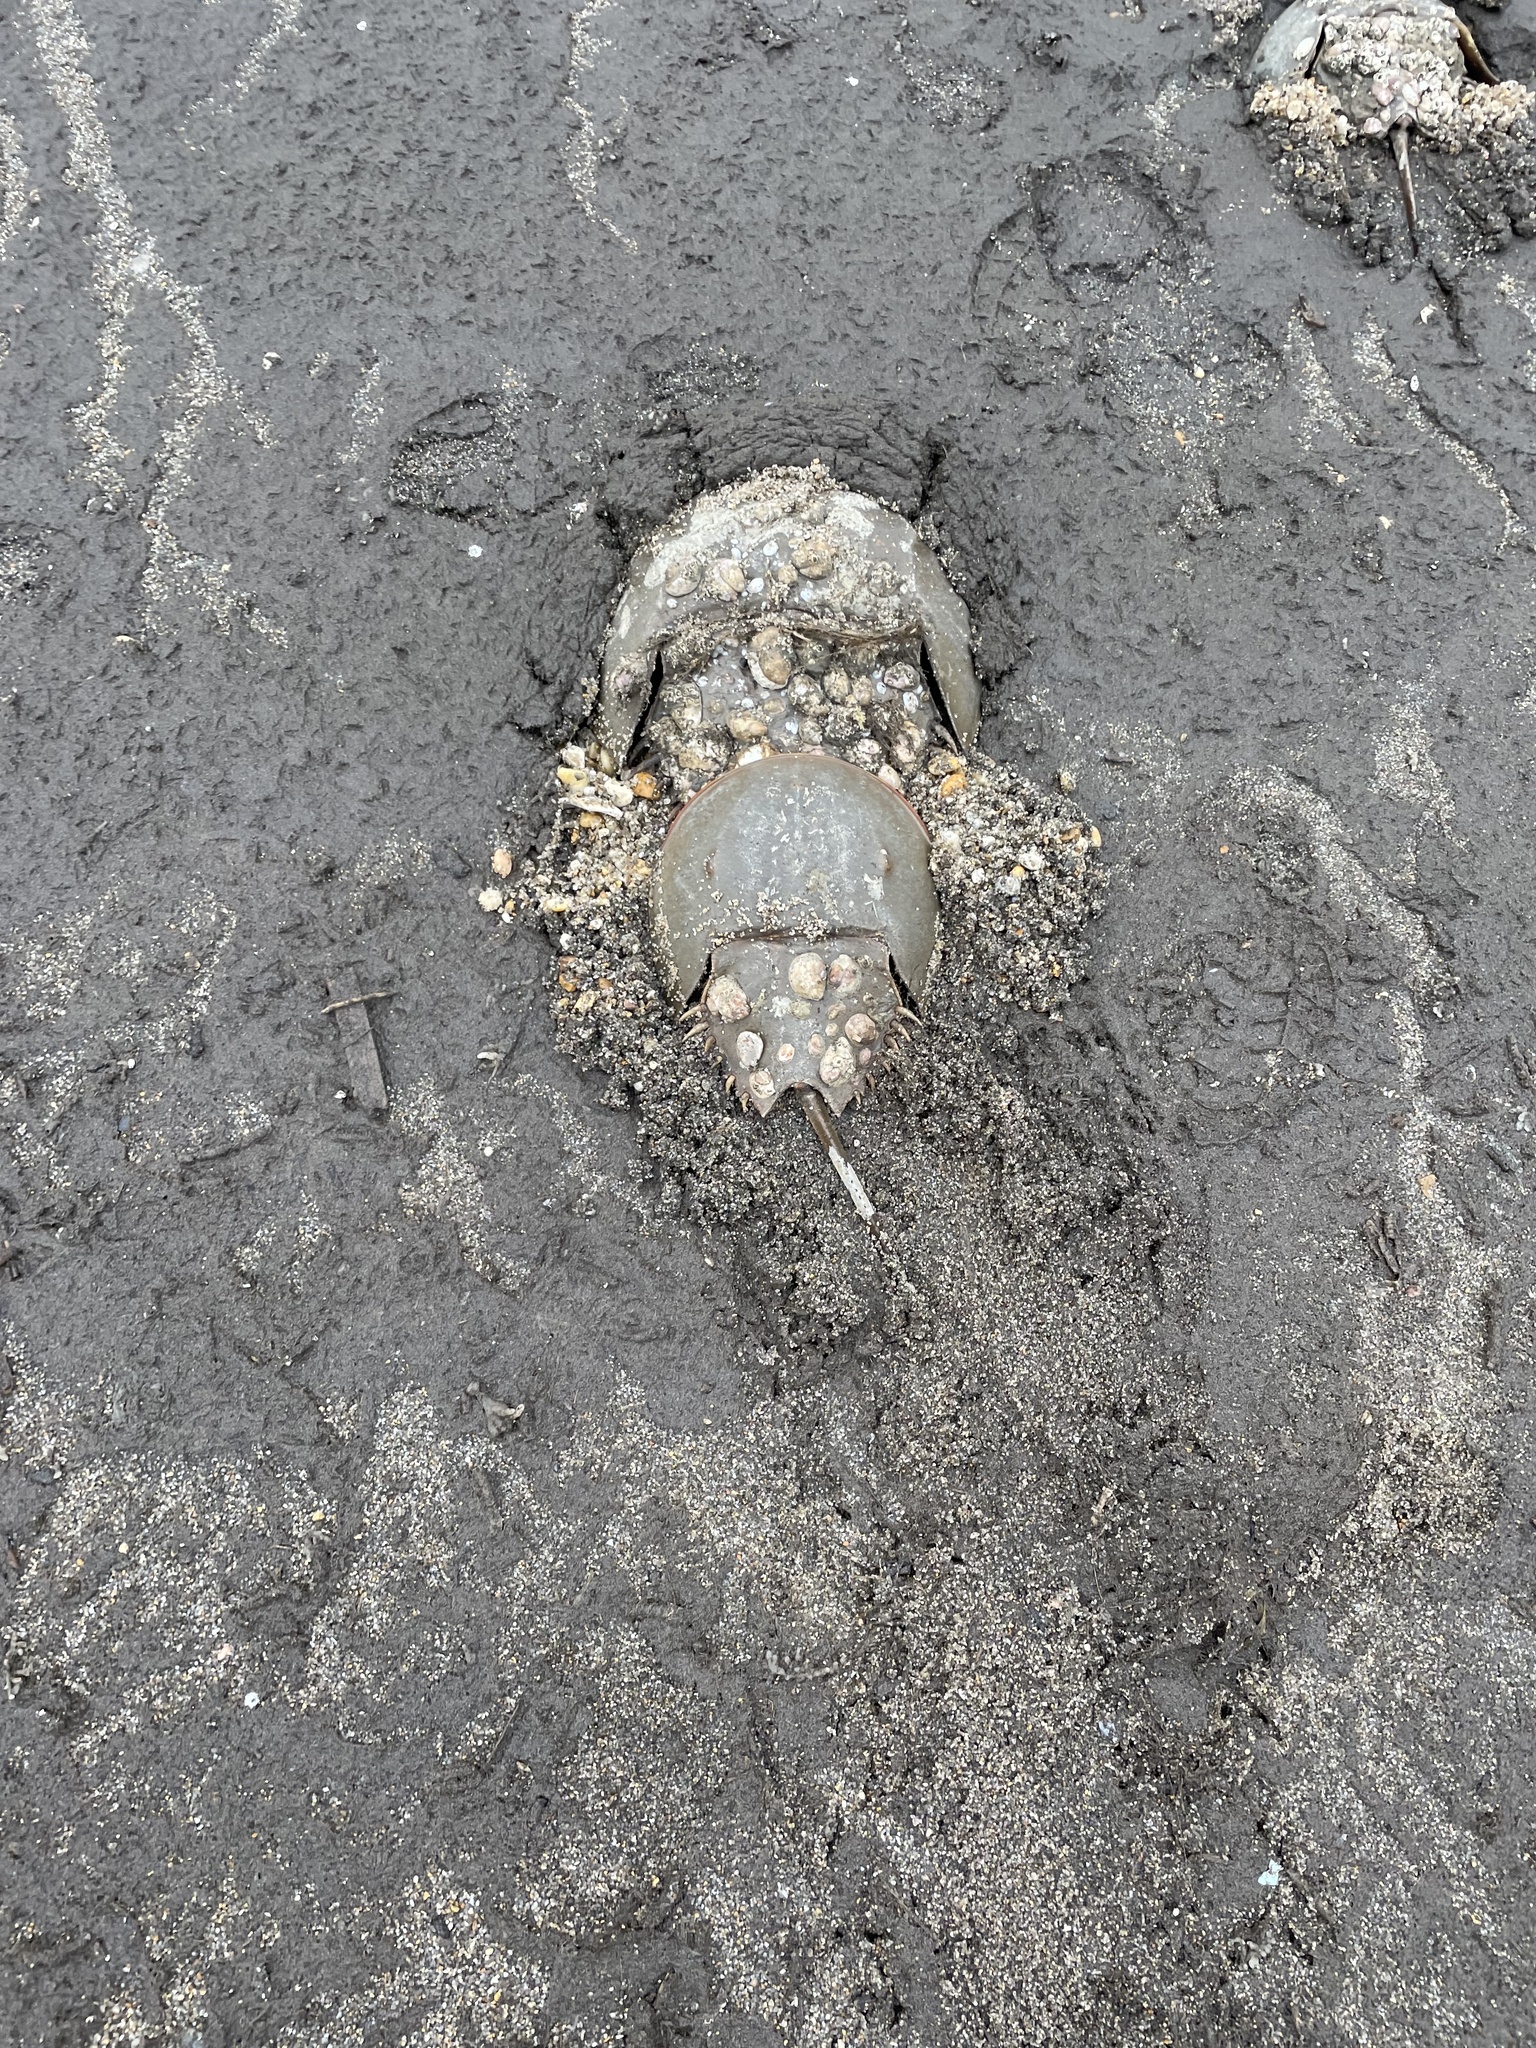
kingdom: Animalia
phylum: Arthropoda
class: Merostomata
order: Xiphosurida
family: Limulidae
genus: Limulus
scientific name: Limulus polyphemus
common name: Horseshoe crab
